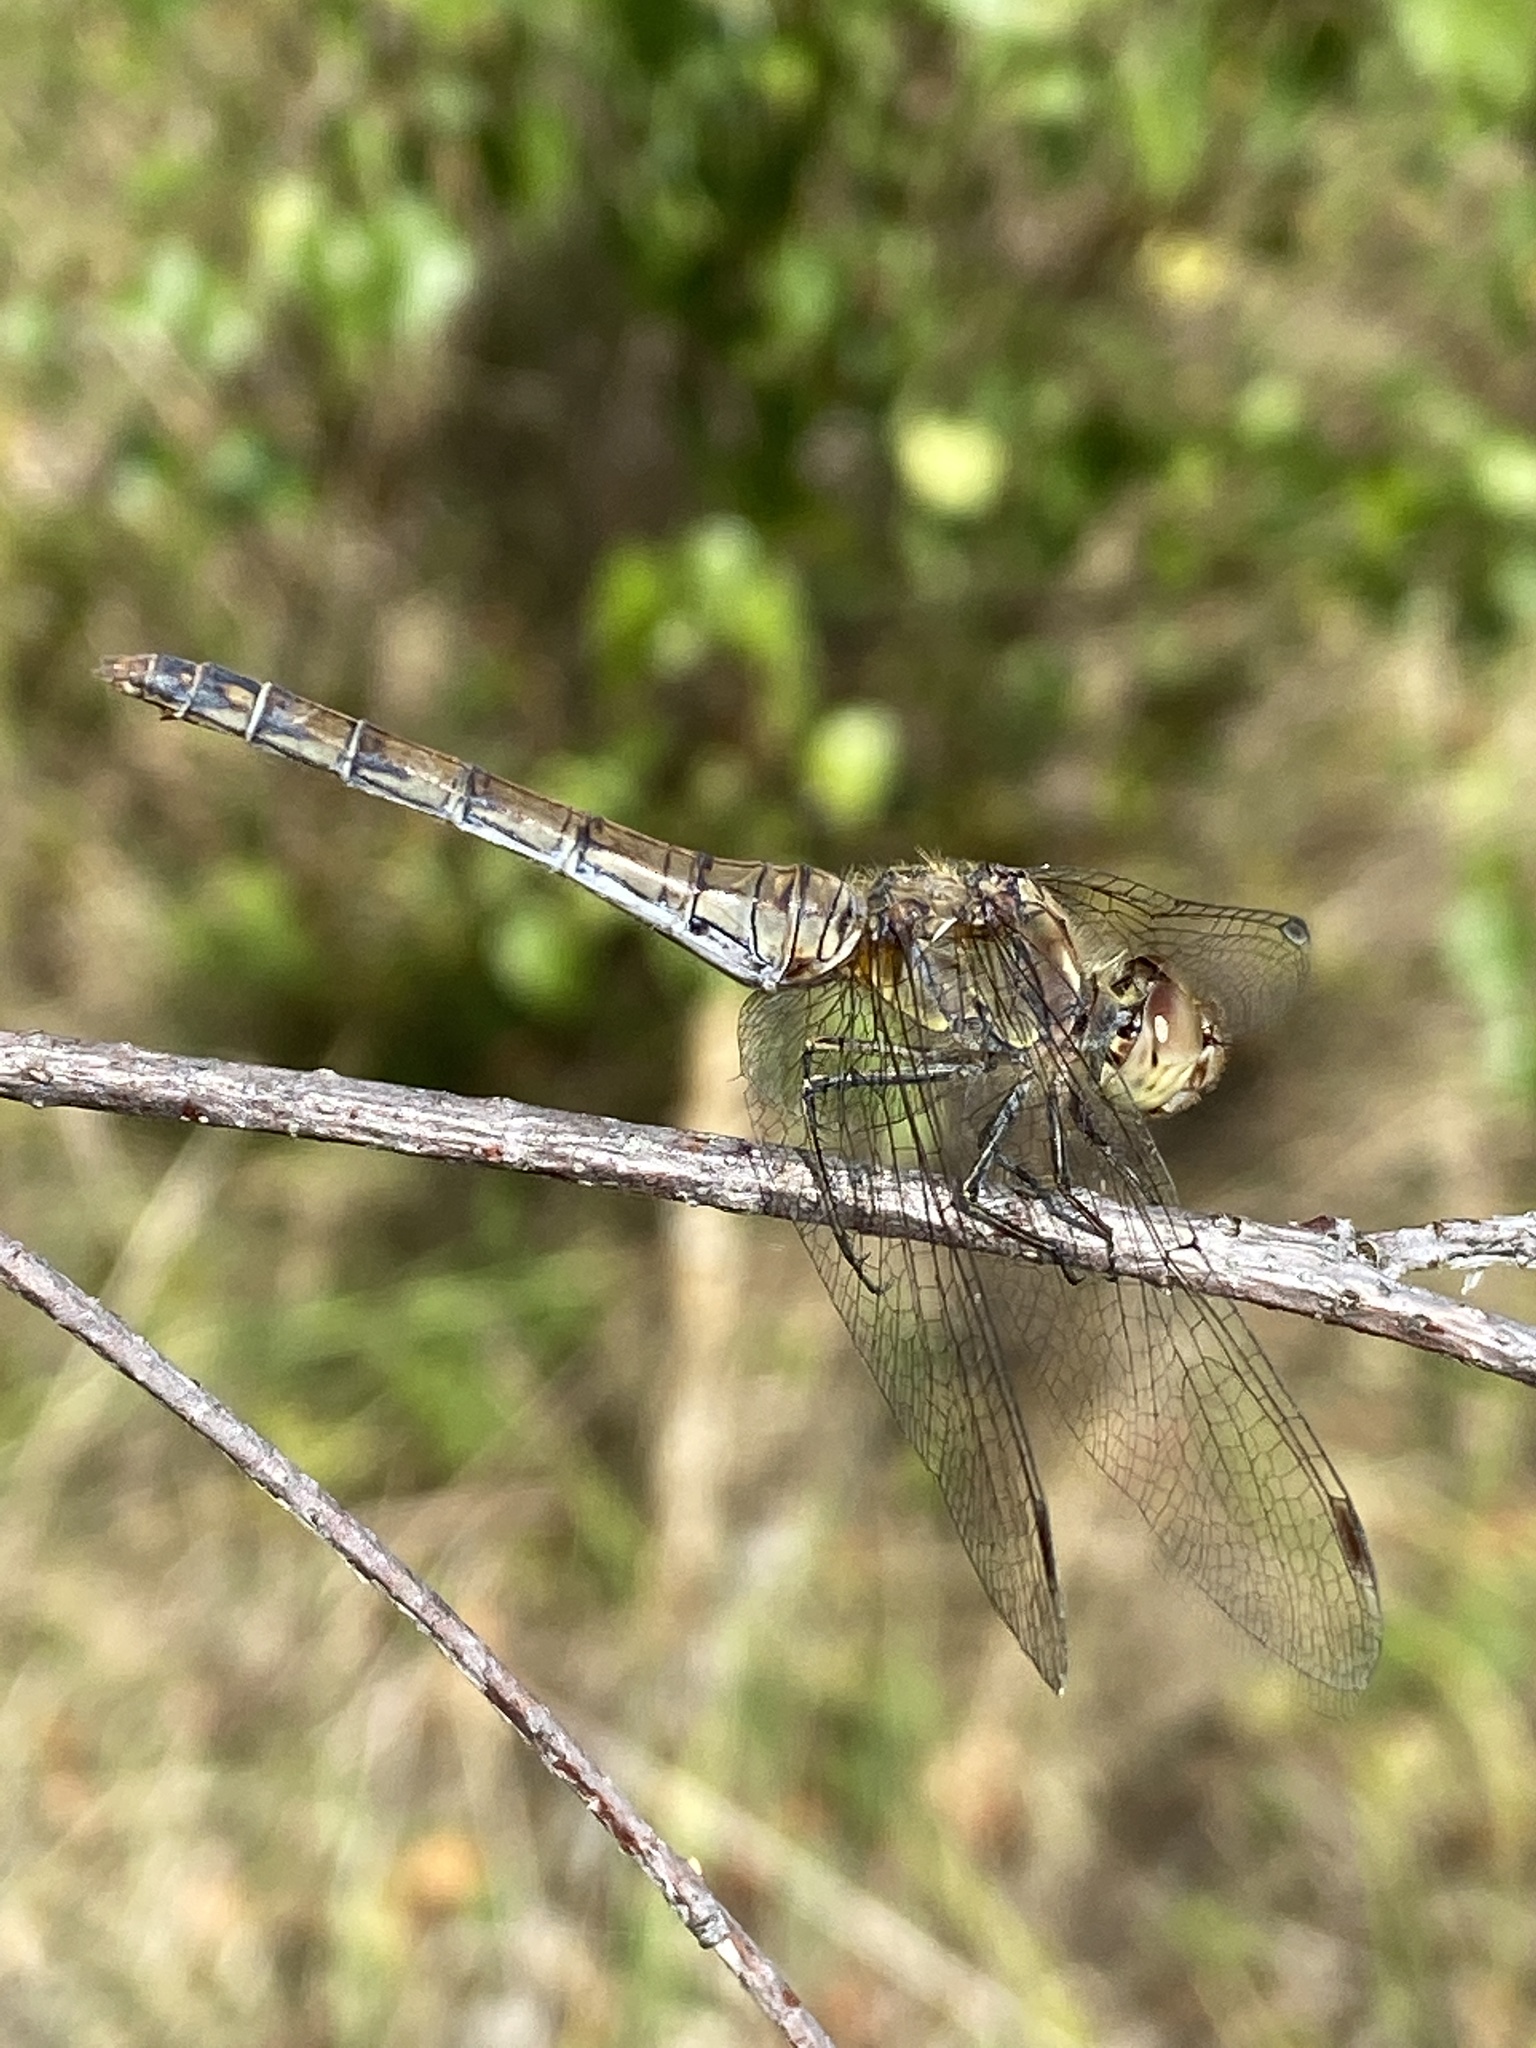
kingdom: Animalia
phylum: Arthropoda
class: Insecta
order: Odonata
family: Libellulidae
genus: Sympetrum
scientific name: Sympetrum striolatum
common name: Common darter
